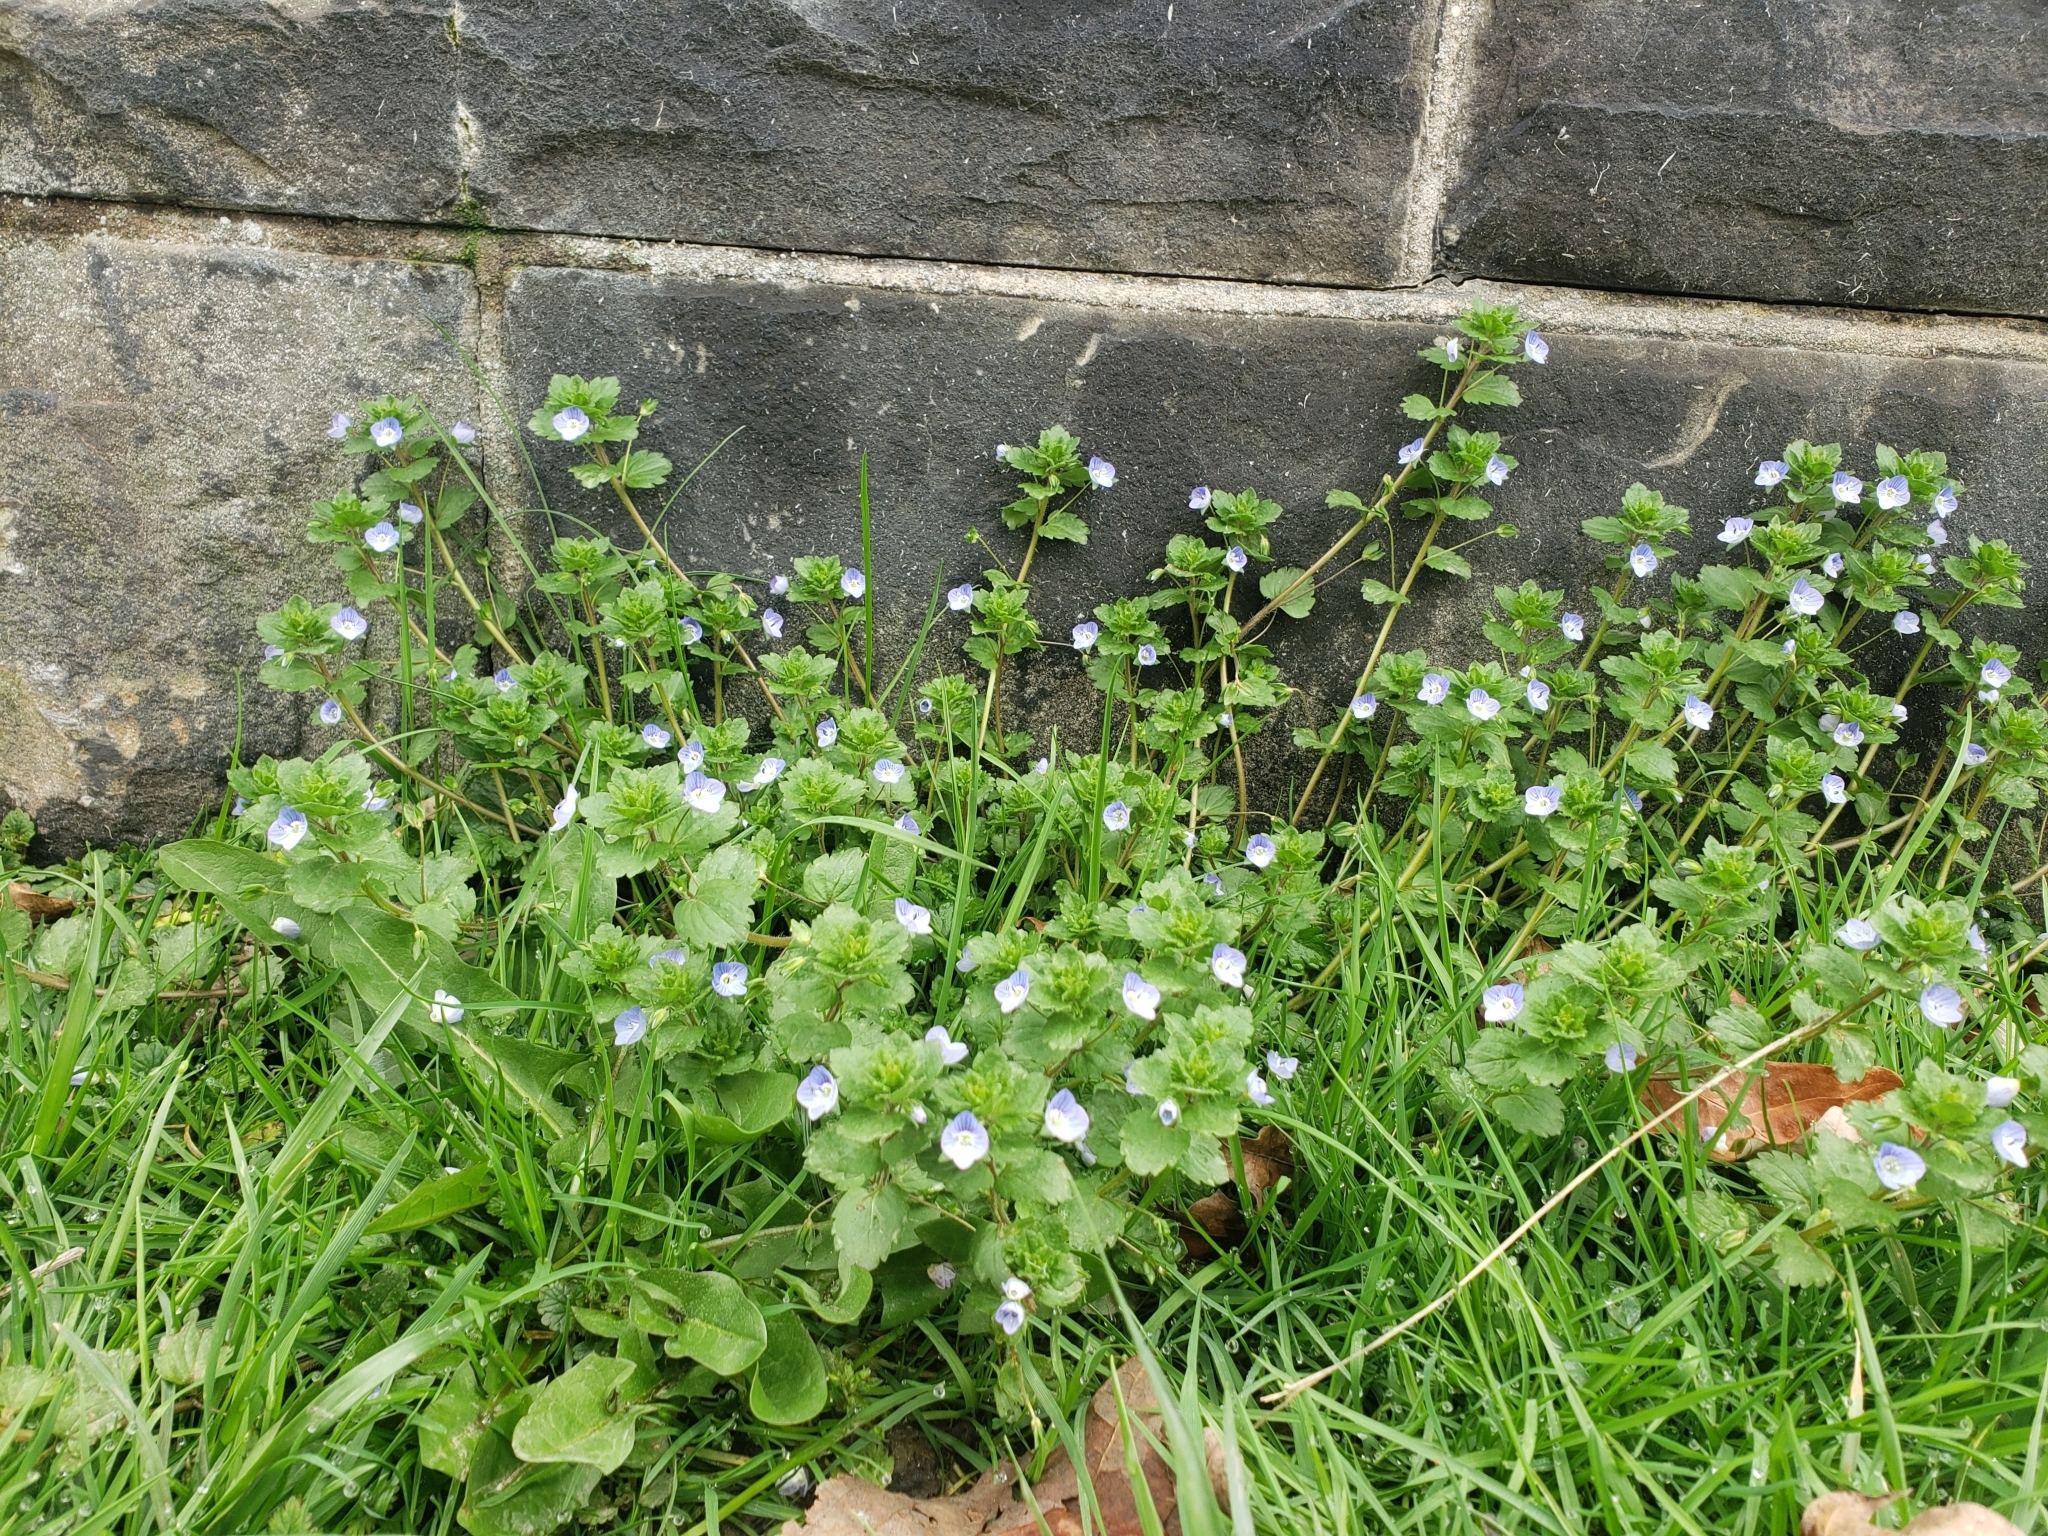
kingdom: Plantae
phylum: Tracheophyta
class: Magnoliopsida
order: Lamiales
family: Plantaginaceae
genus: Veronica
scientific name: Veronica persica
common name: Common field-speedwell
